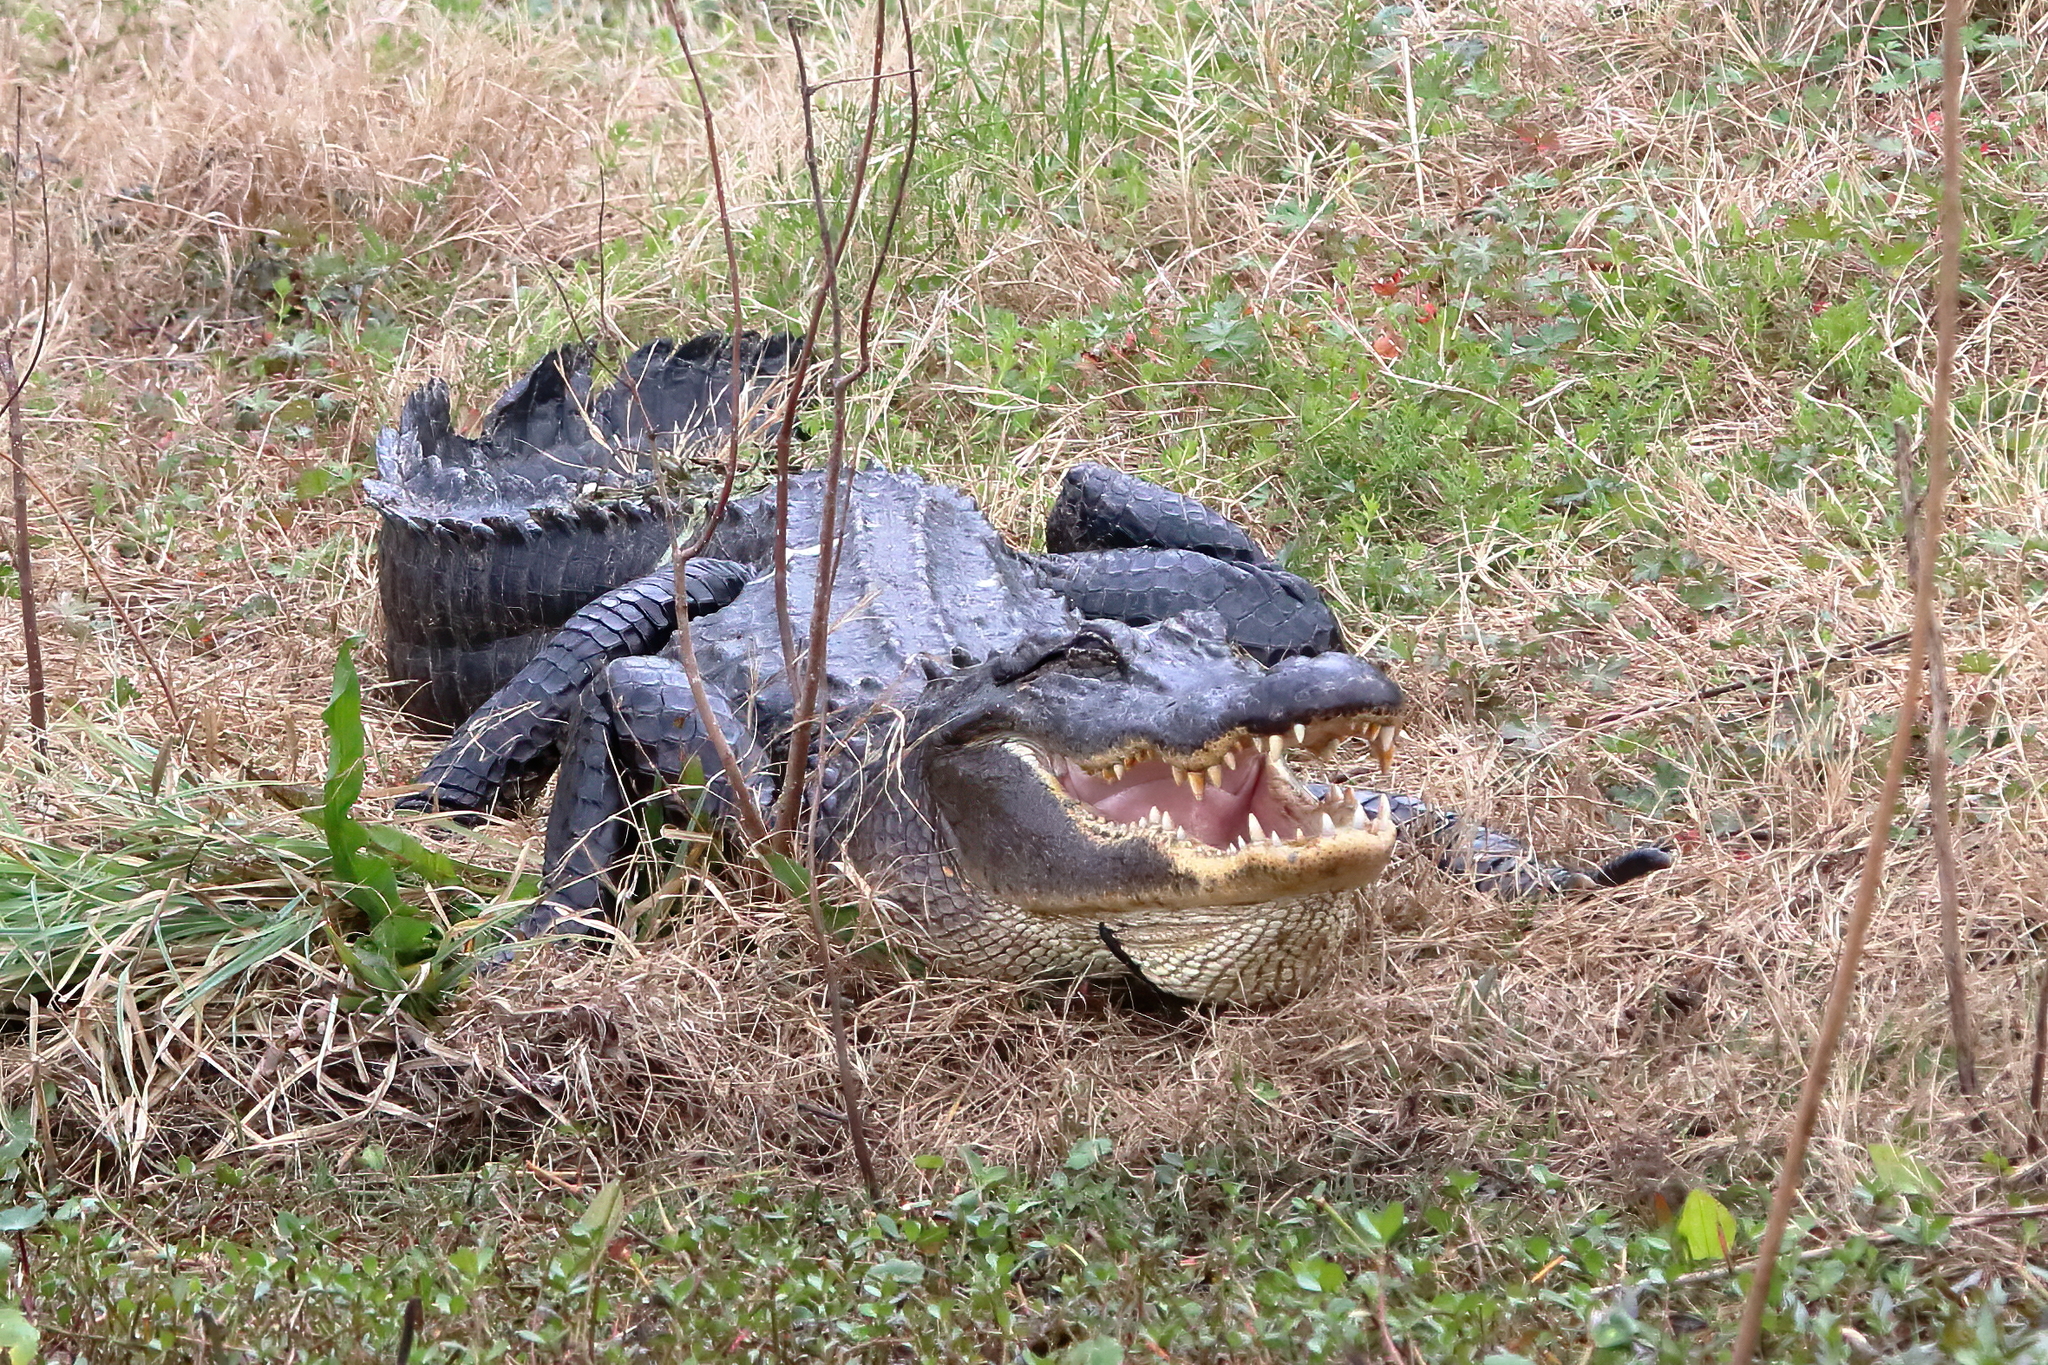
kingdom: Animalia
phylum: Chordata
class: Crocodylia
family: Alligatoridae
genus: Alligator
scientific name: Alligator mississippiensis
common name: American alligator
